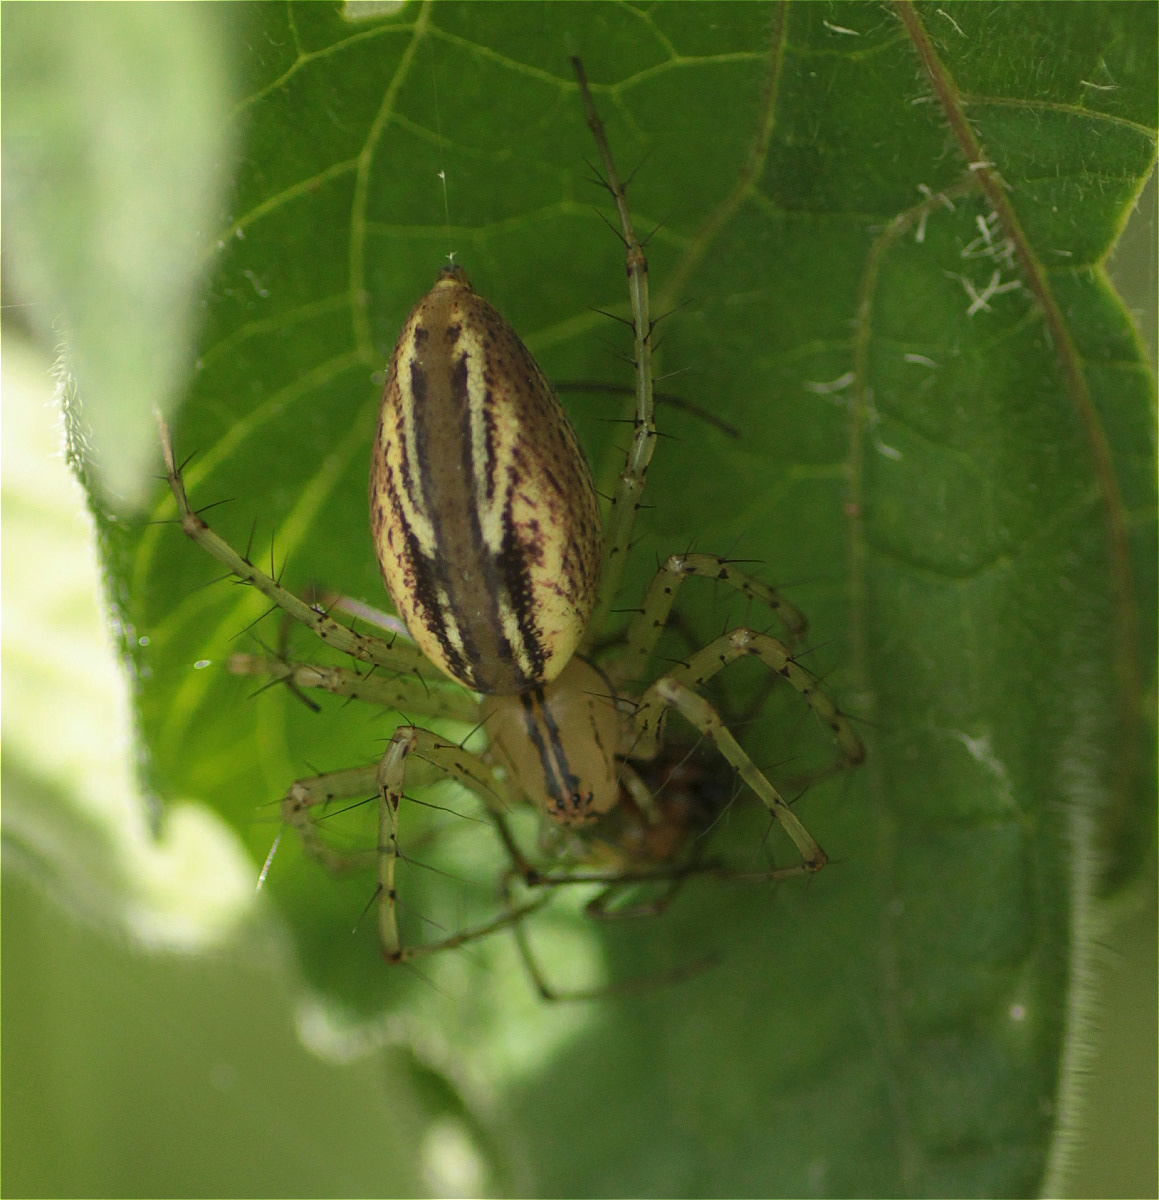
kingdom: Animalia
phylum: Arthropoda
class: Arachnida
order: Araneae
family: Oxyopidae
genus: Peucetia
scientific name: Peucetia rubrolineata
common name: Lynx spiders
